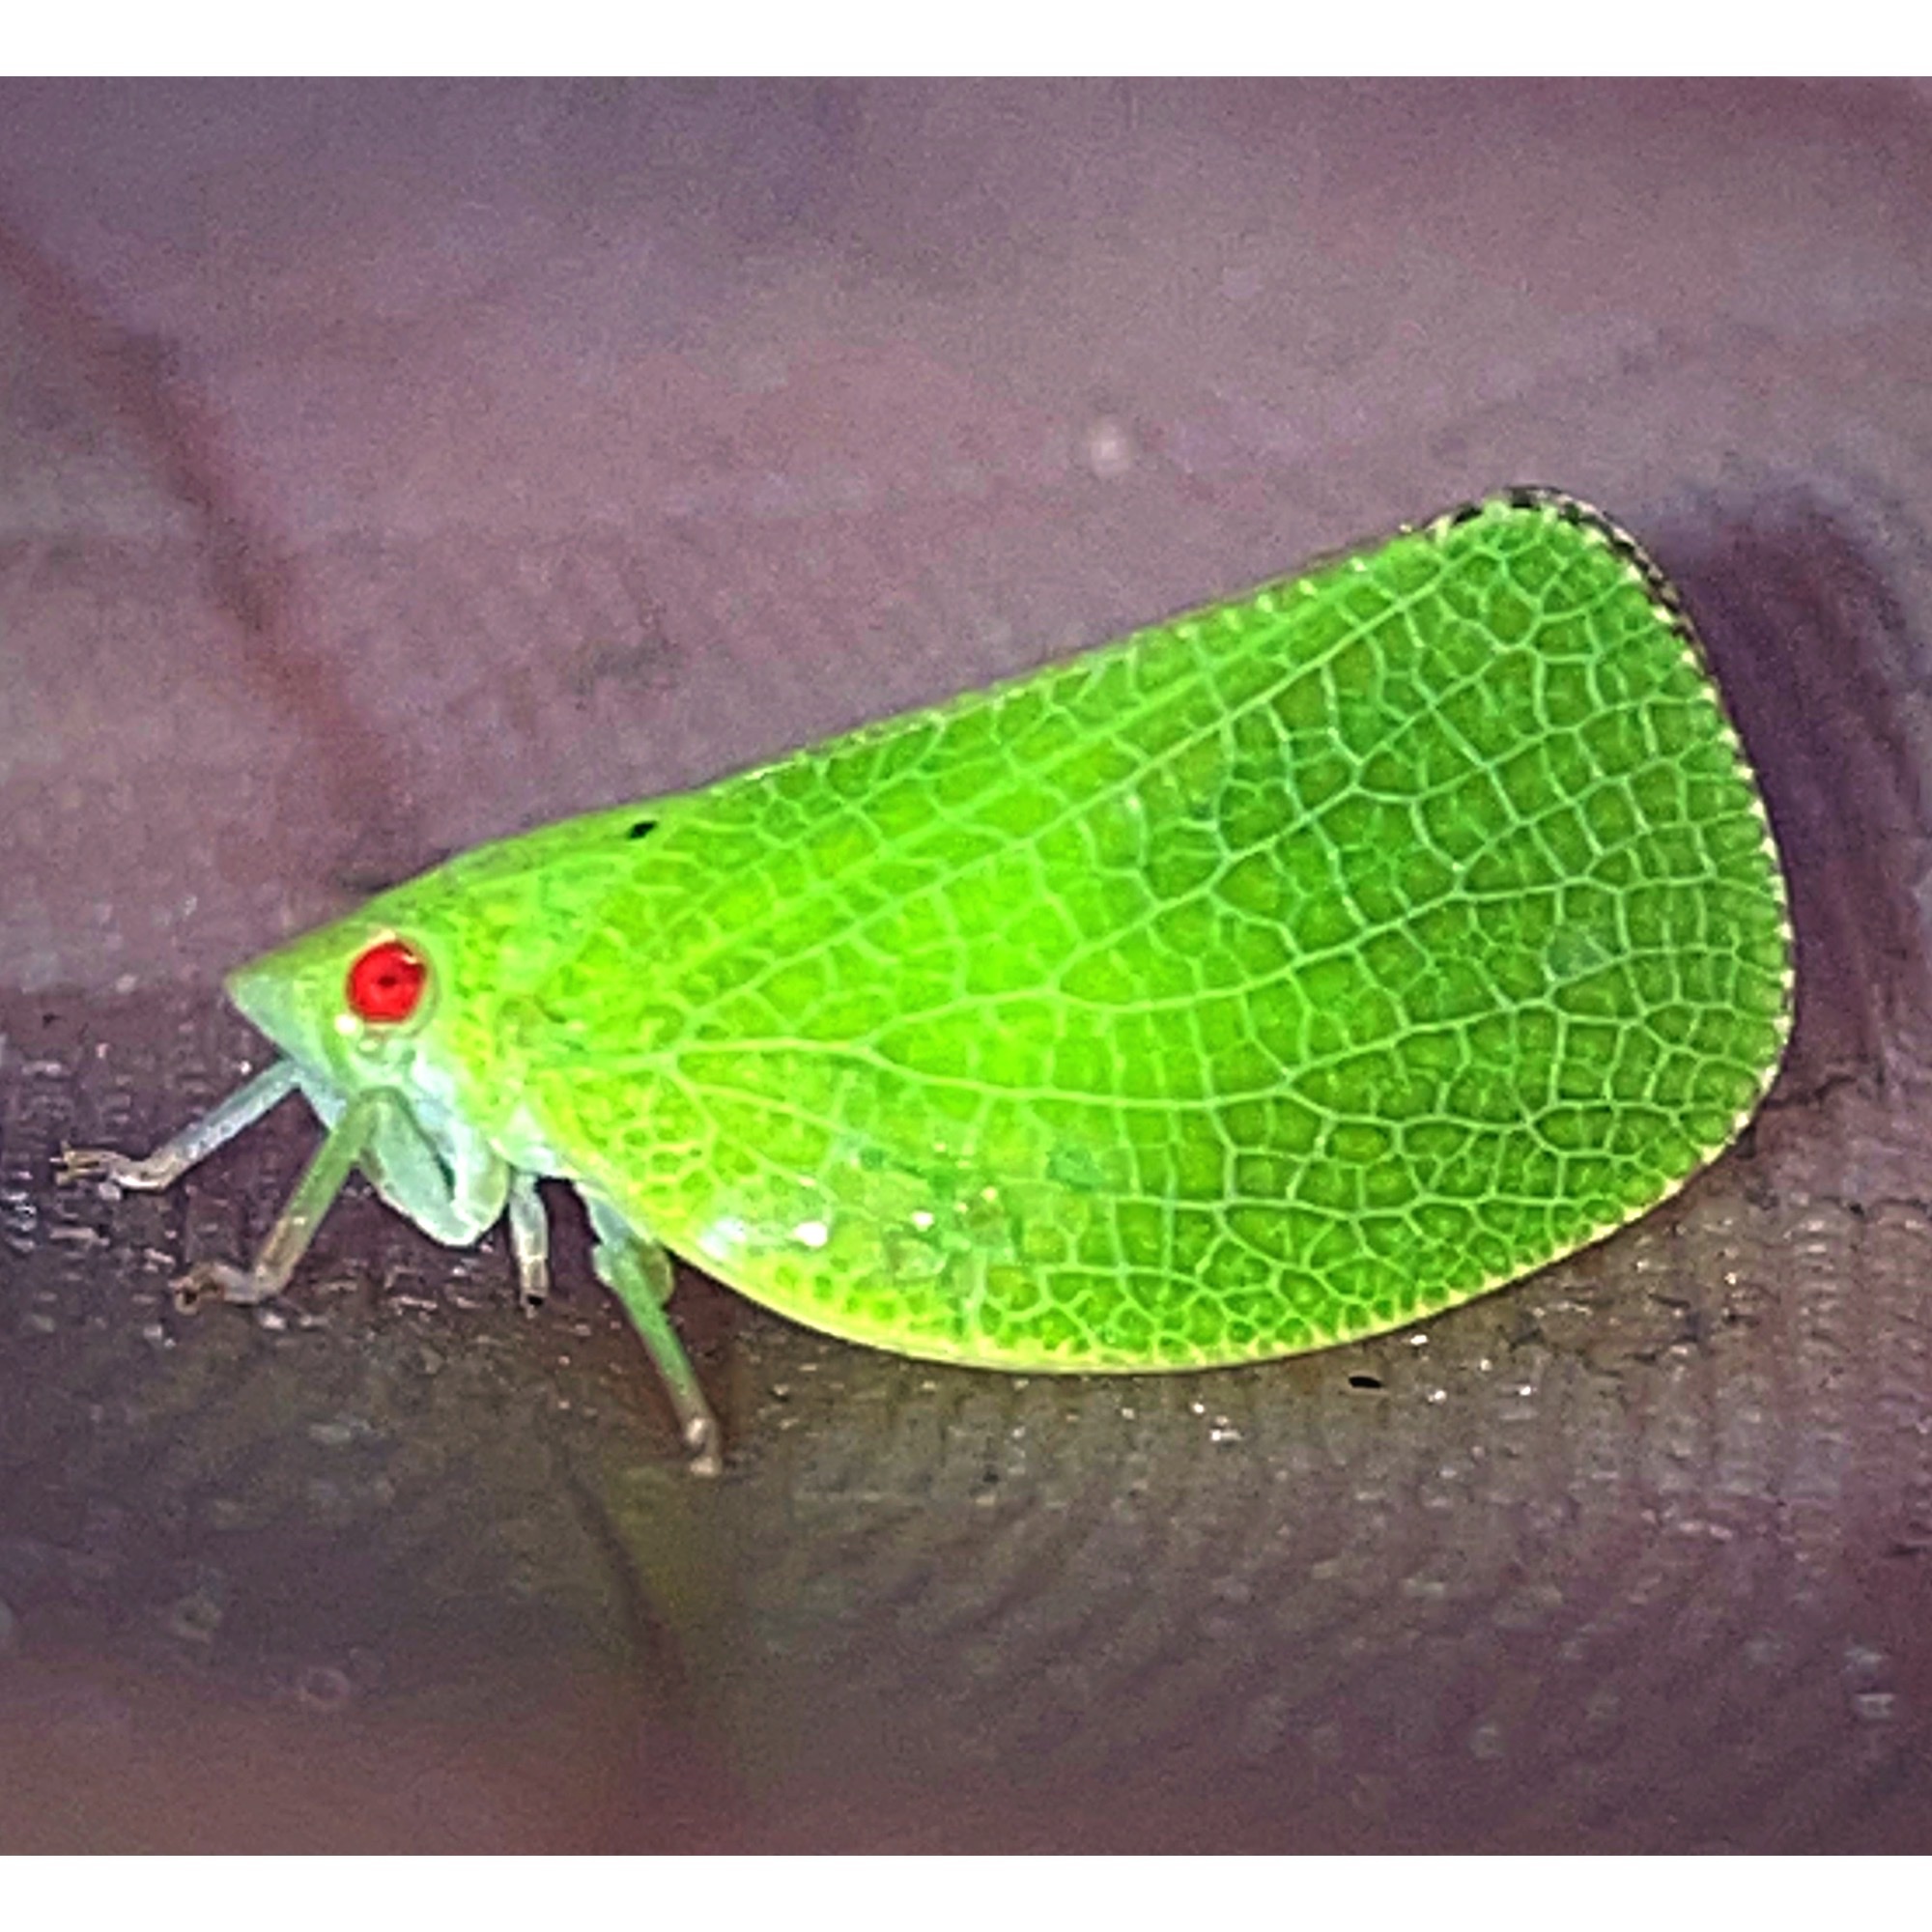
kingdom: Animalia
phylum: Arthropoda
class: Insecta
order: Hemiptera
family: Acanaloniidae
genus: Acanalonia
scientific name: Acanalonia conica
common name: Green cone-headed planthopper
